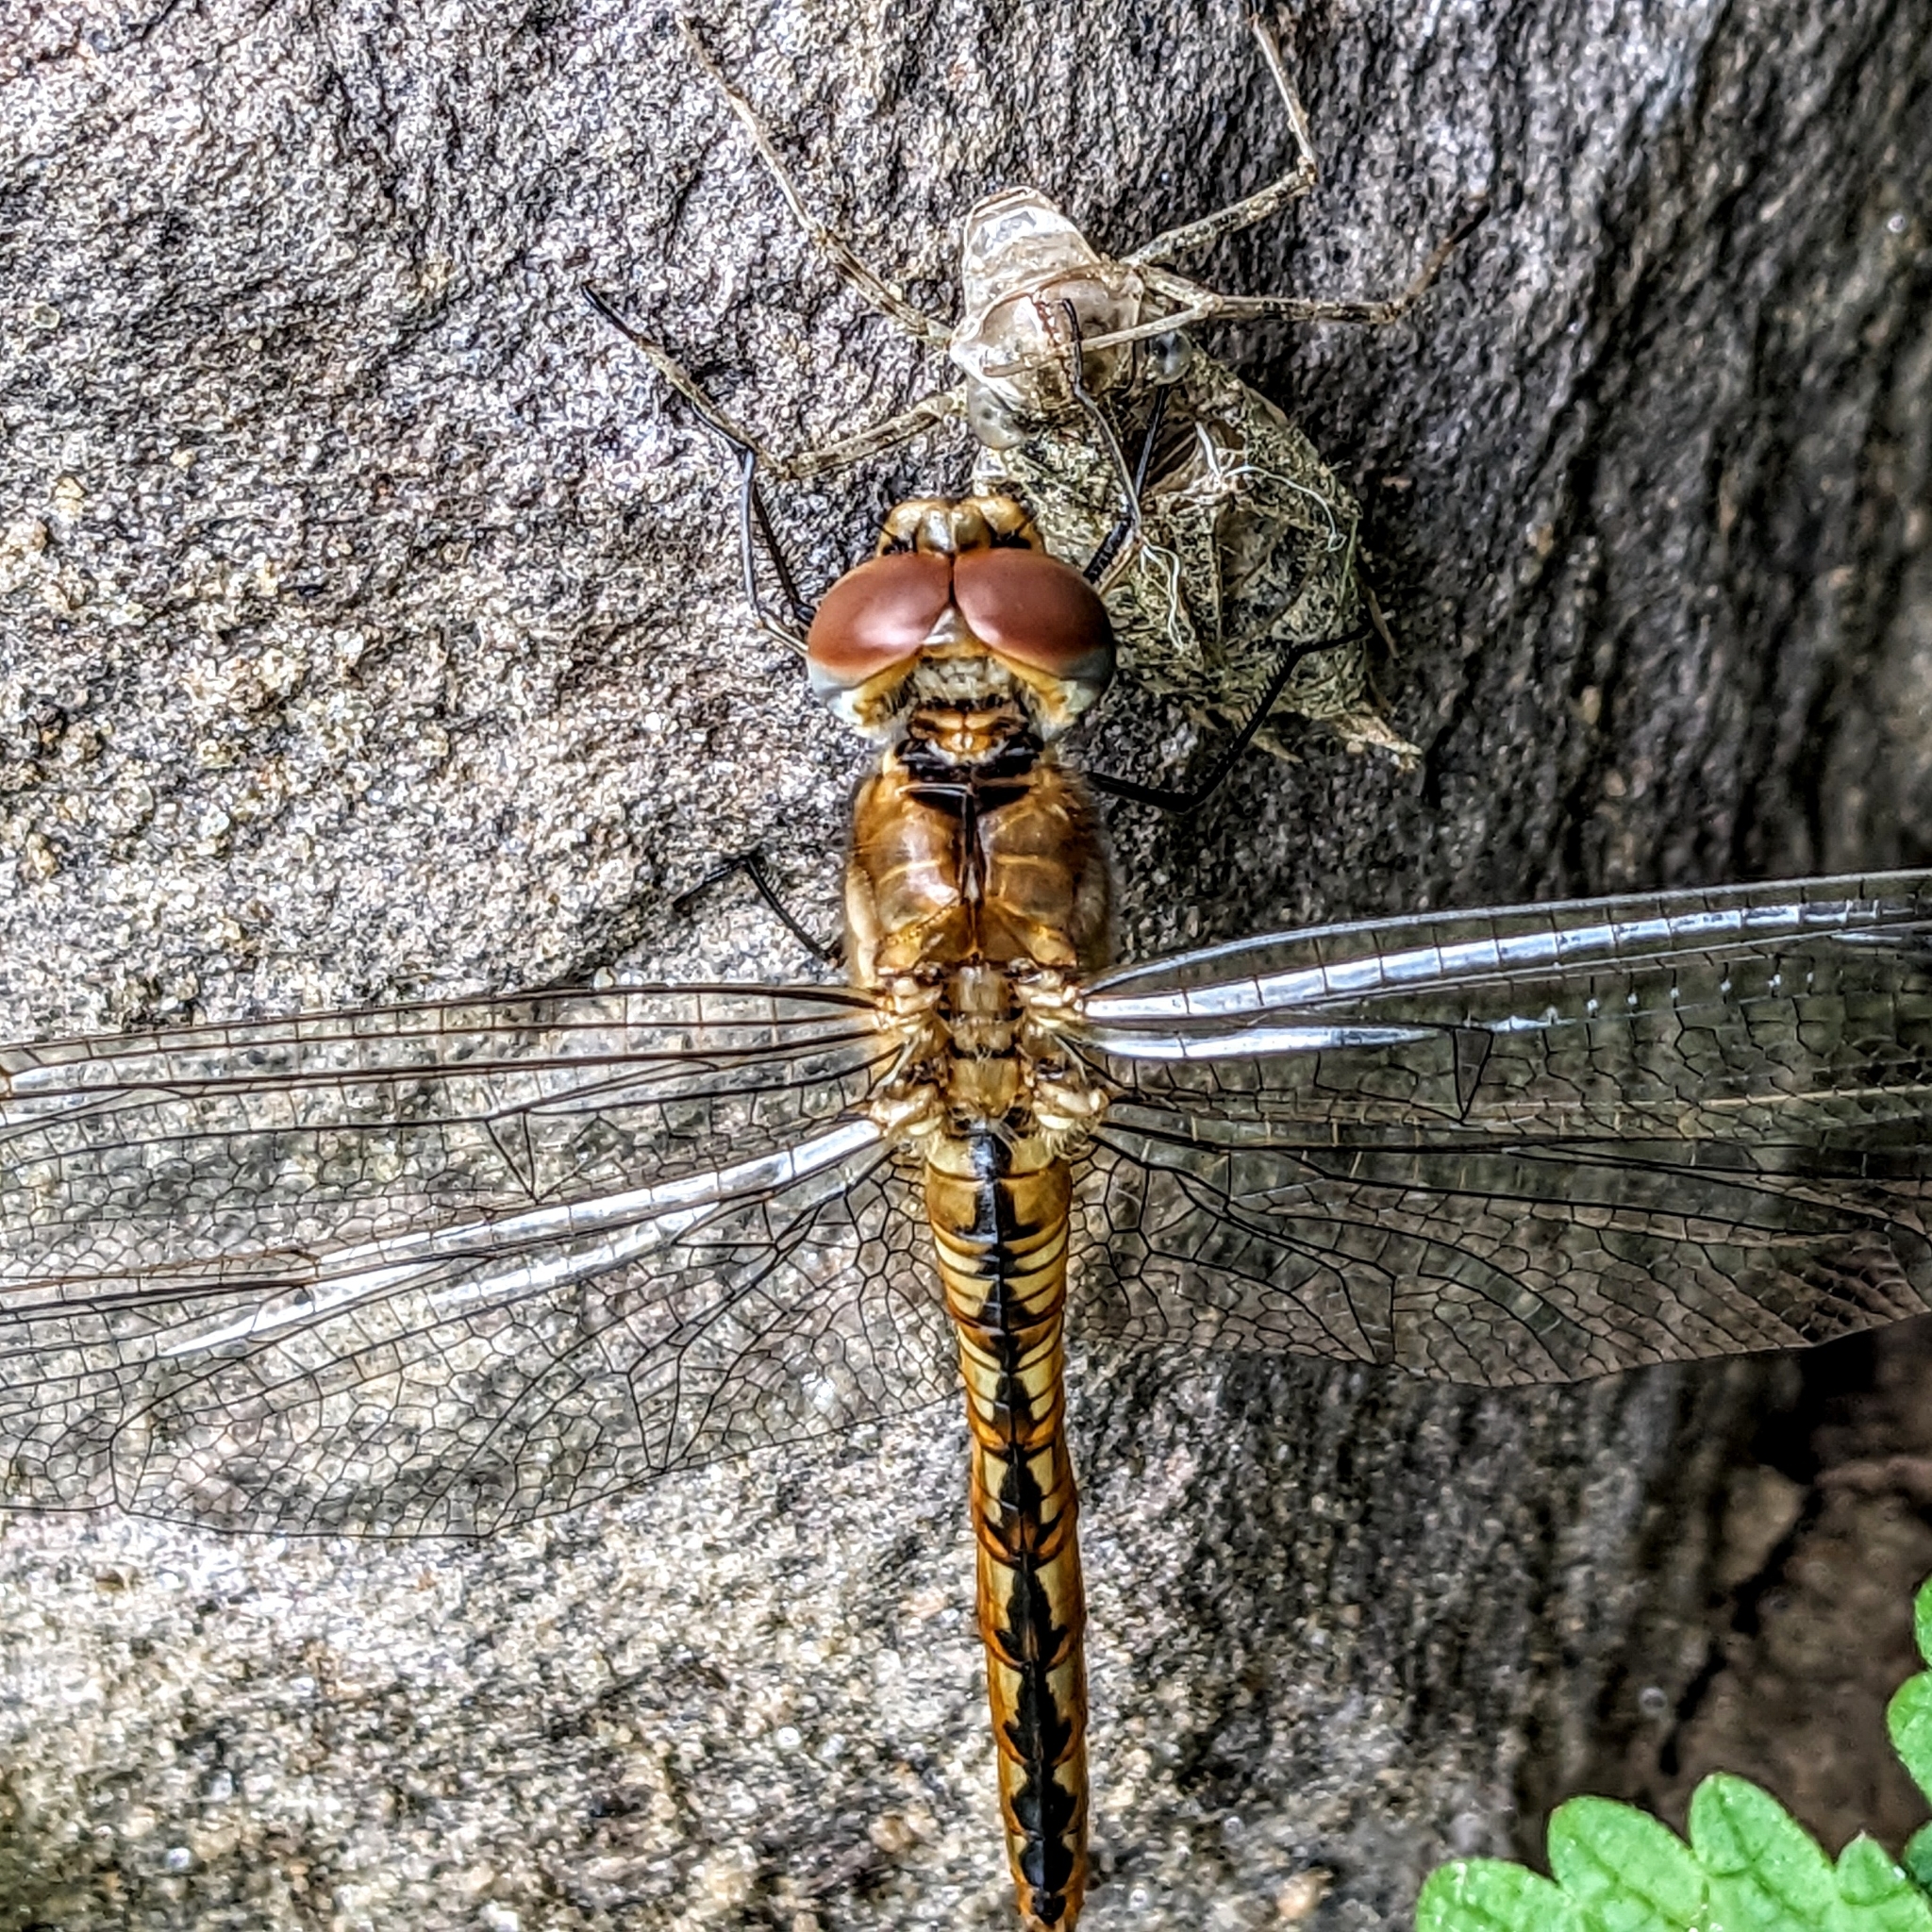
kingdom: Animalia
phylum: Arthropoda
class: Insecta
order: Odonata
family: Libellulidae
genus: Pantala
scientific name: Pantala flavescens
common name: Wandering glider
